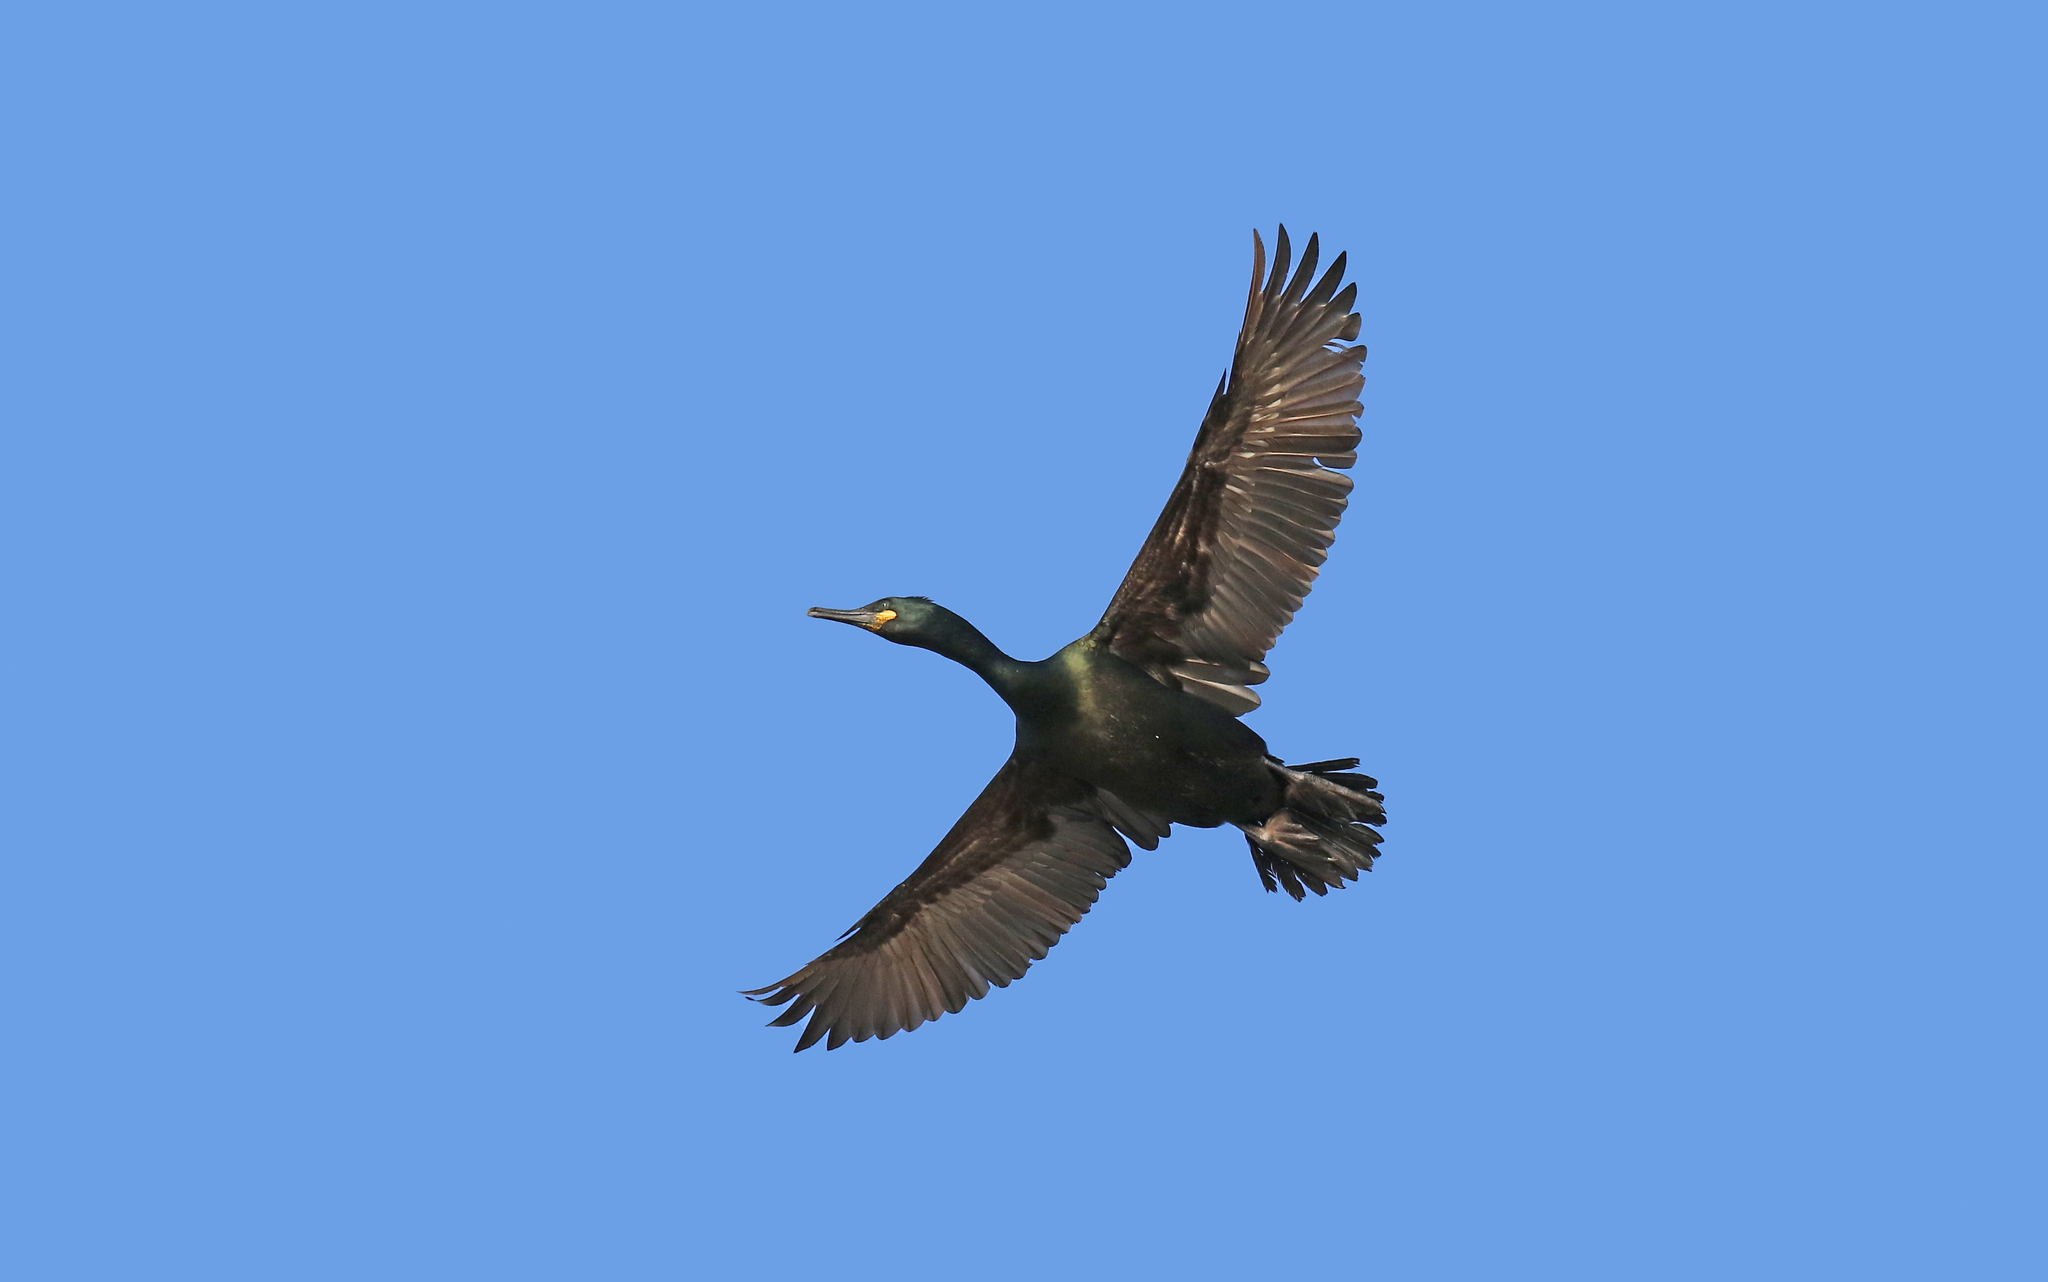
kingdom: Animalia
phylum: Chordata
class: Aves
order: Suliformes
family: Phalacrocoracidae
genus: Phalacrocorax
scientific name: Phalacrocorax aristotelis
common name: European shag
